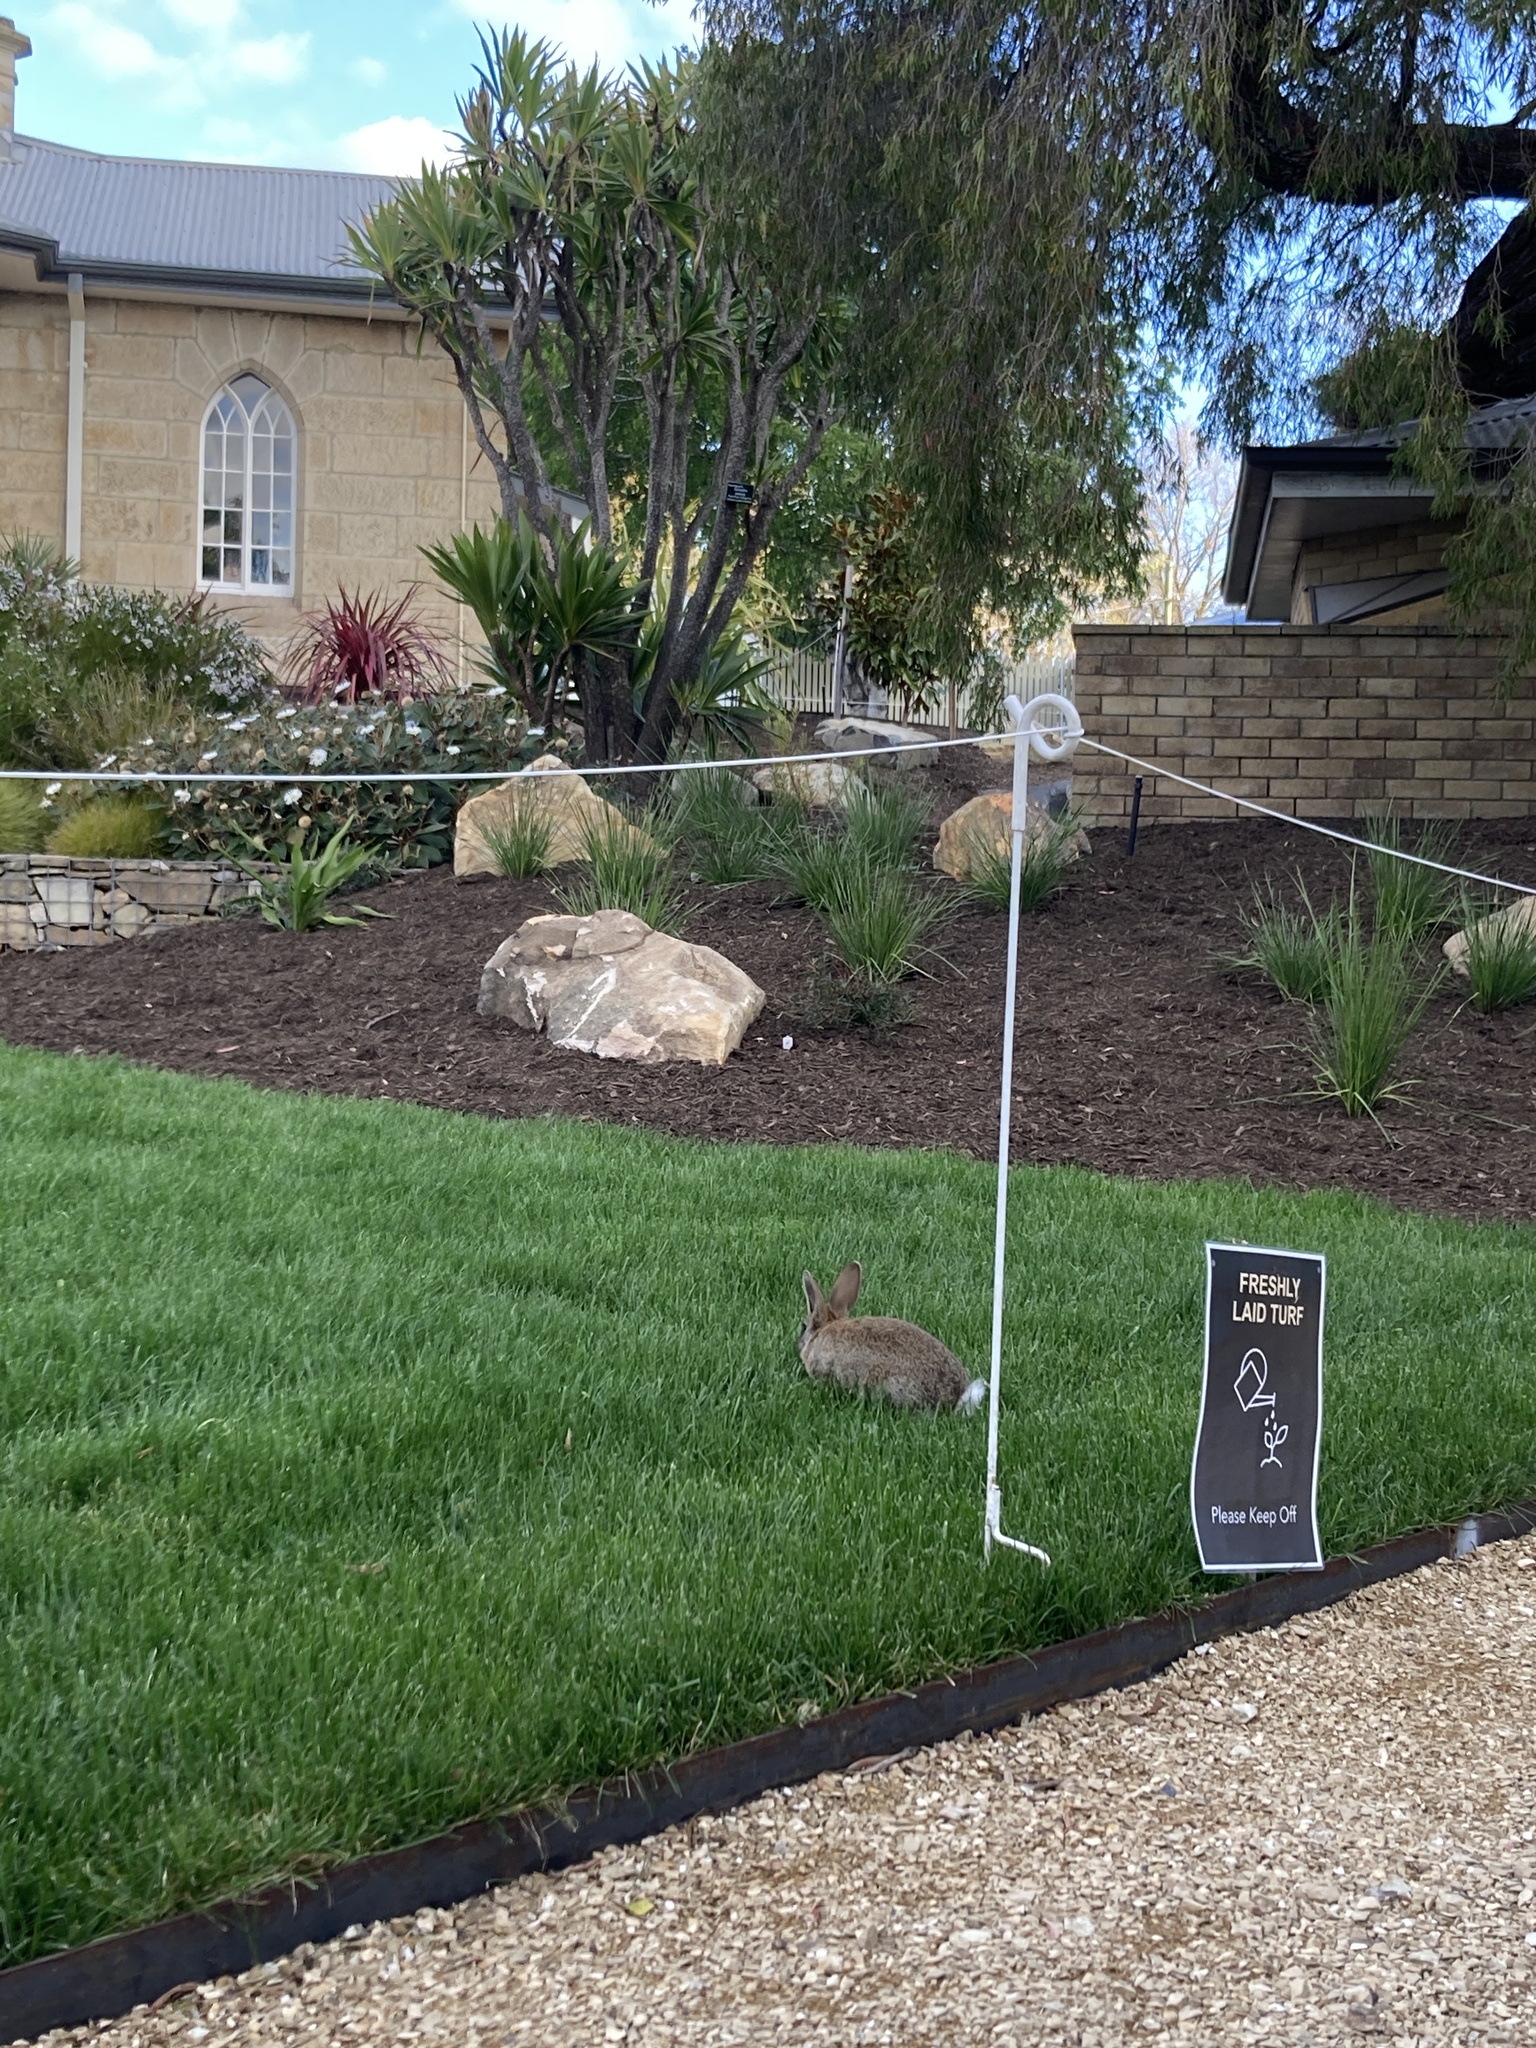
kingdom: Animalia
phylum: Chordata
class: Mammalia
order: Lagomorpha
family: Leporidae
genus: Oryctolagus
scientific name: Oryctolagus cuniculus
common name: European rabbit
